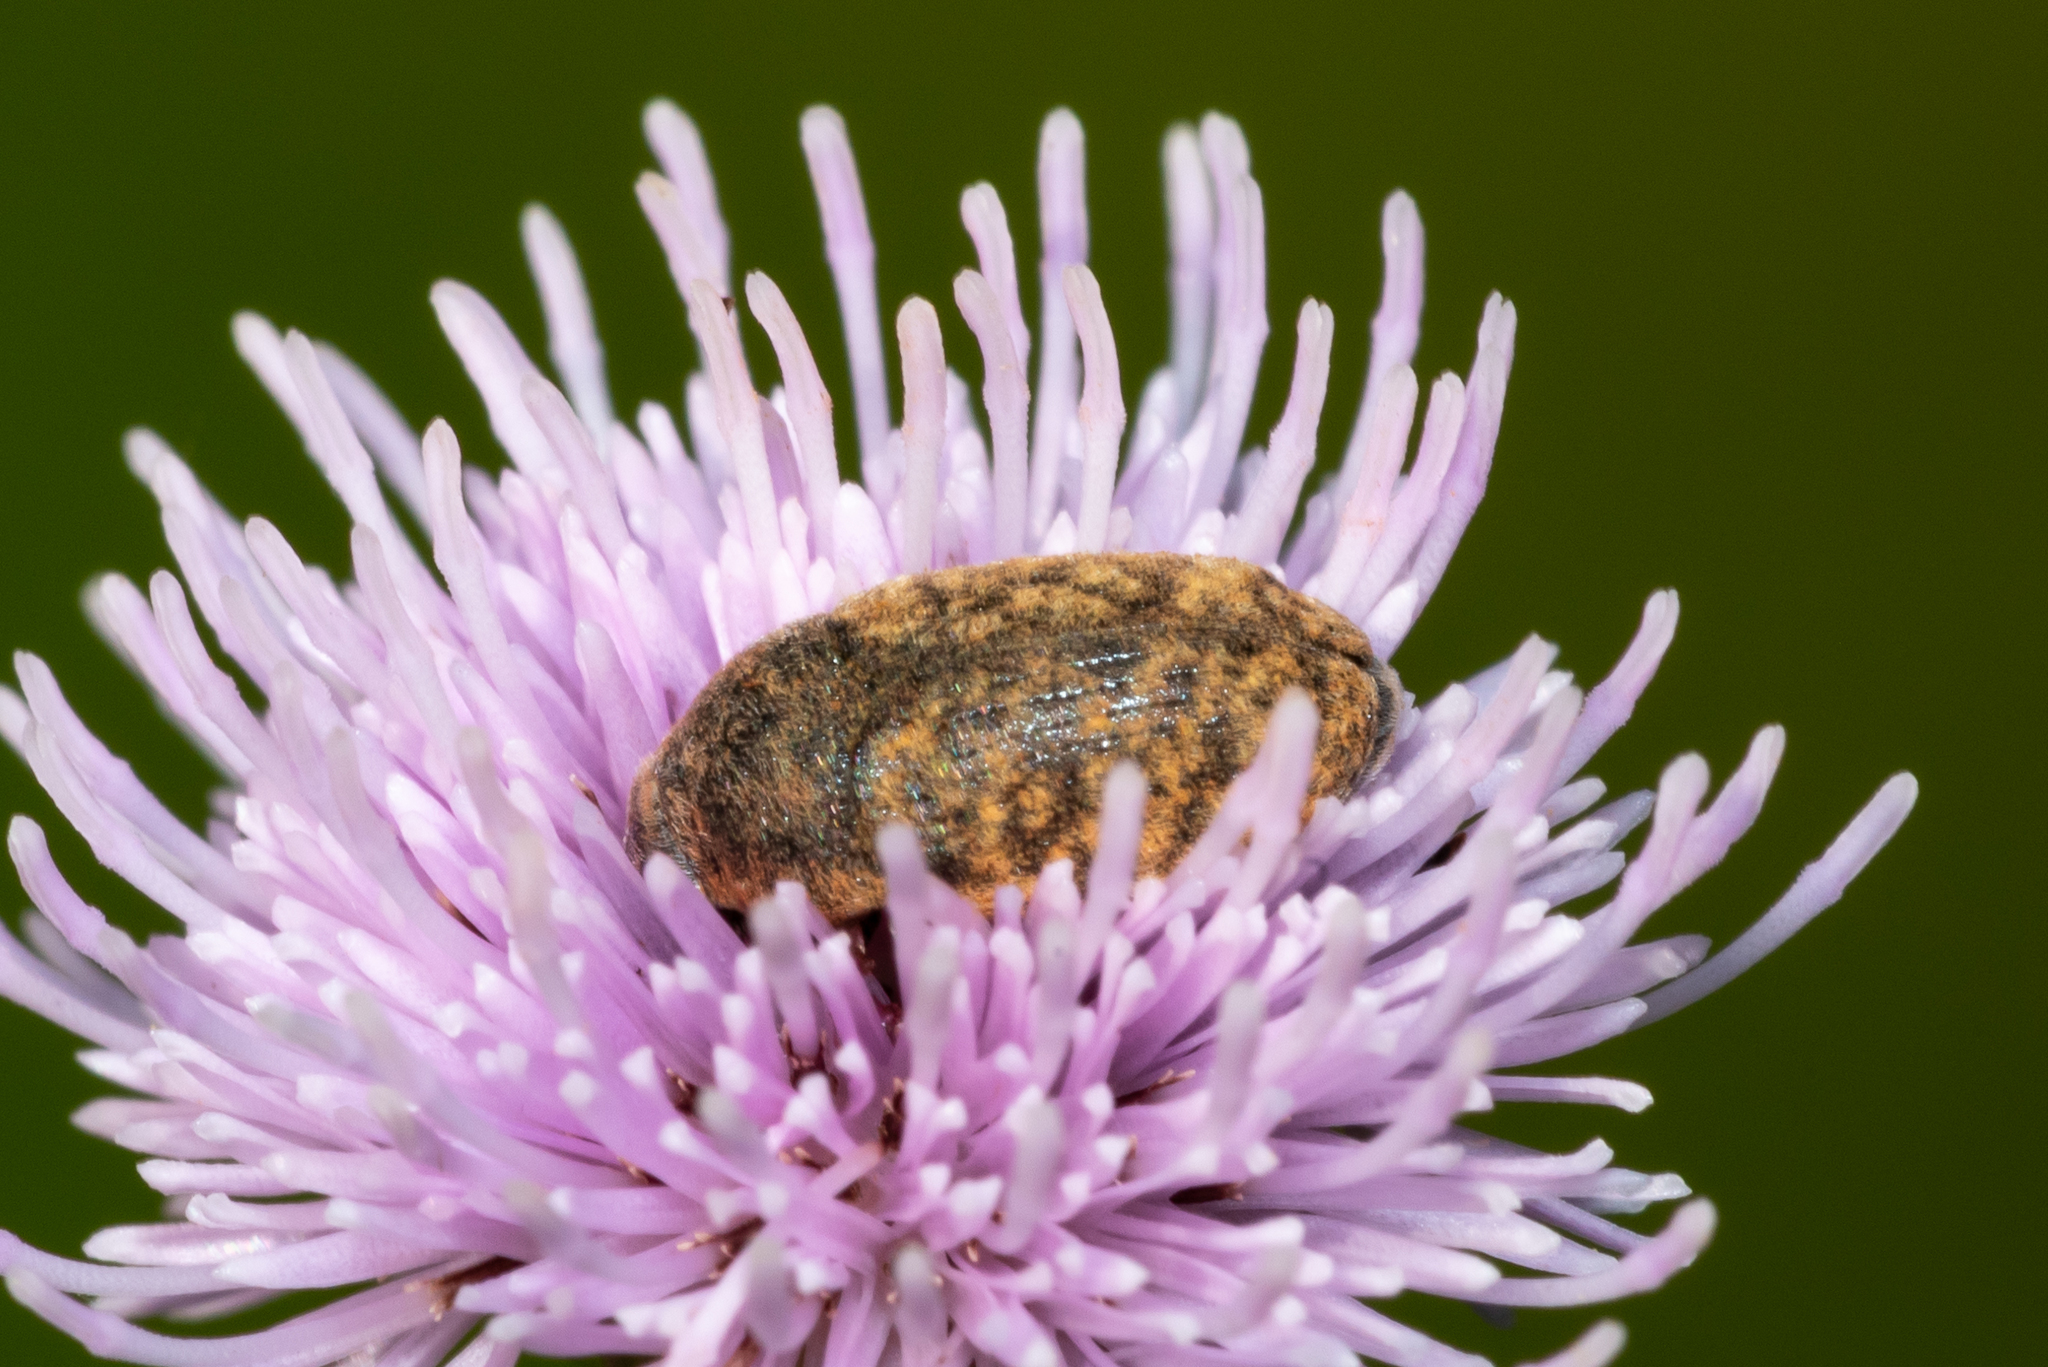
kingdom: Animalia
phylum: Arthropoda
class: Insecta
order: Coleoptera
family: Curculionidae
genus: Larinus
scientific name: Larinus obtusus
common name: Weevil
